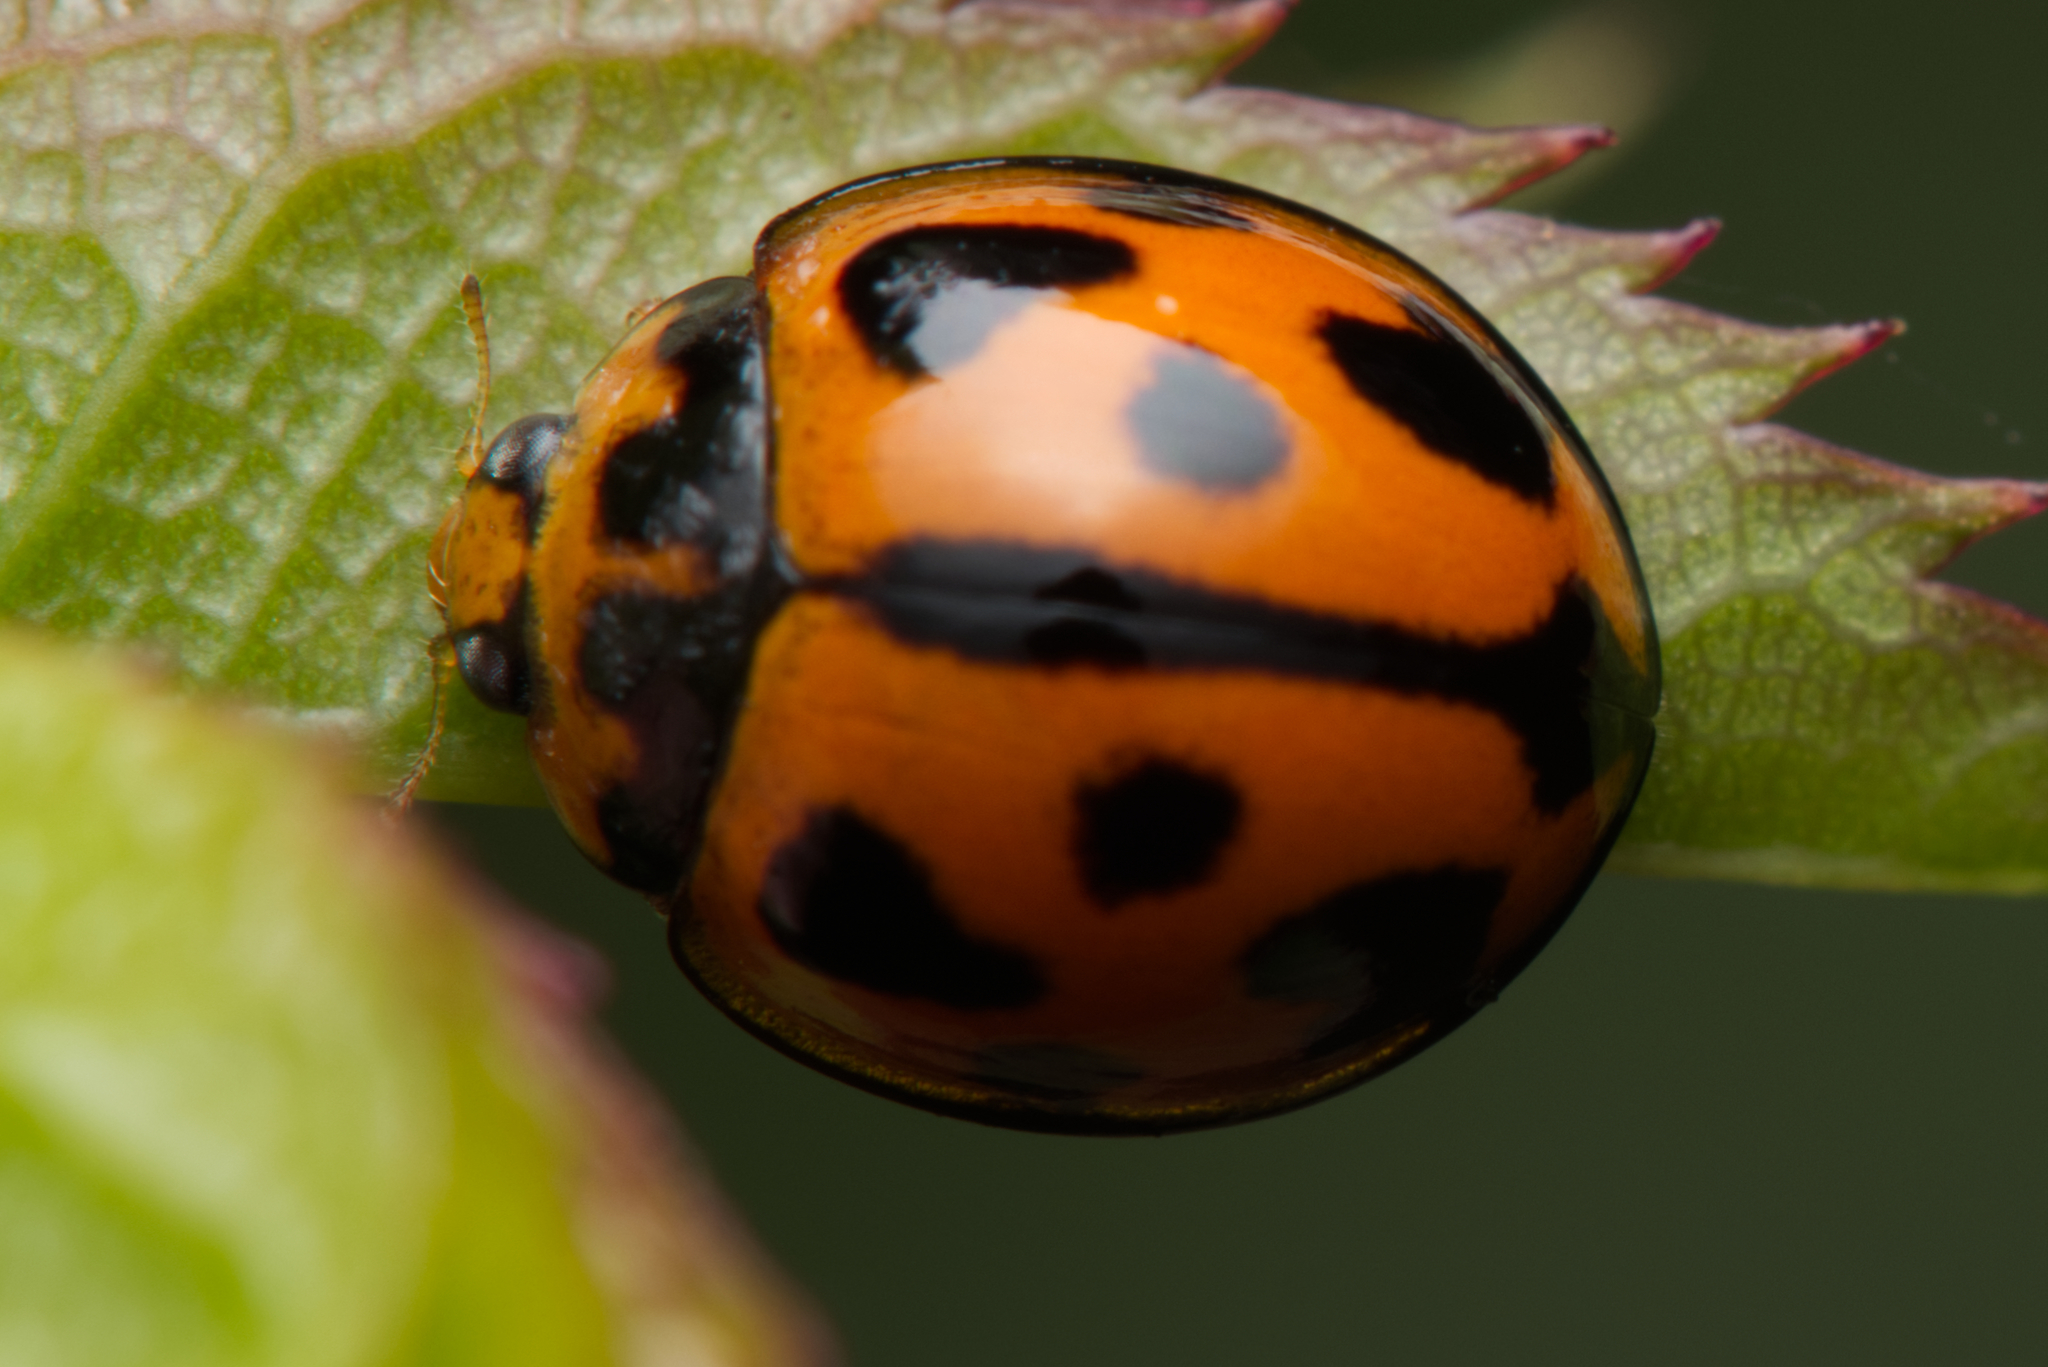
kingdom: Animalia
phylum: Arthropoda
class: Insecta
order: Coleoptera
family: Coccinellidae
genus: Coelophora
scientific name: Coelophora inaequalis
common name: Common australian lady beetle
